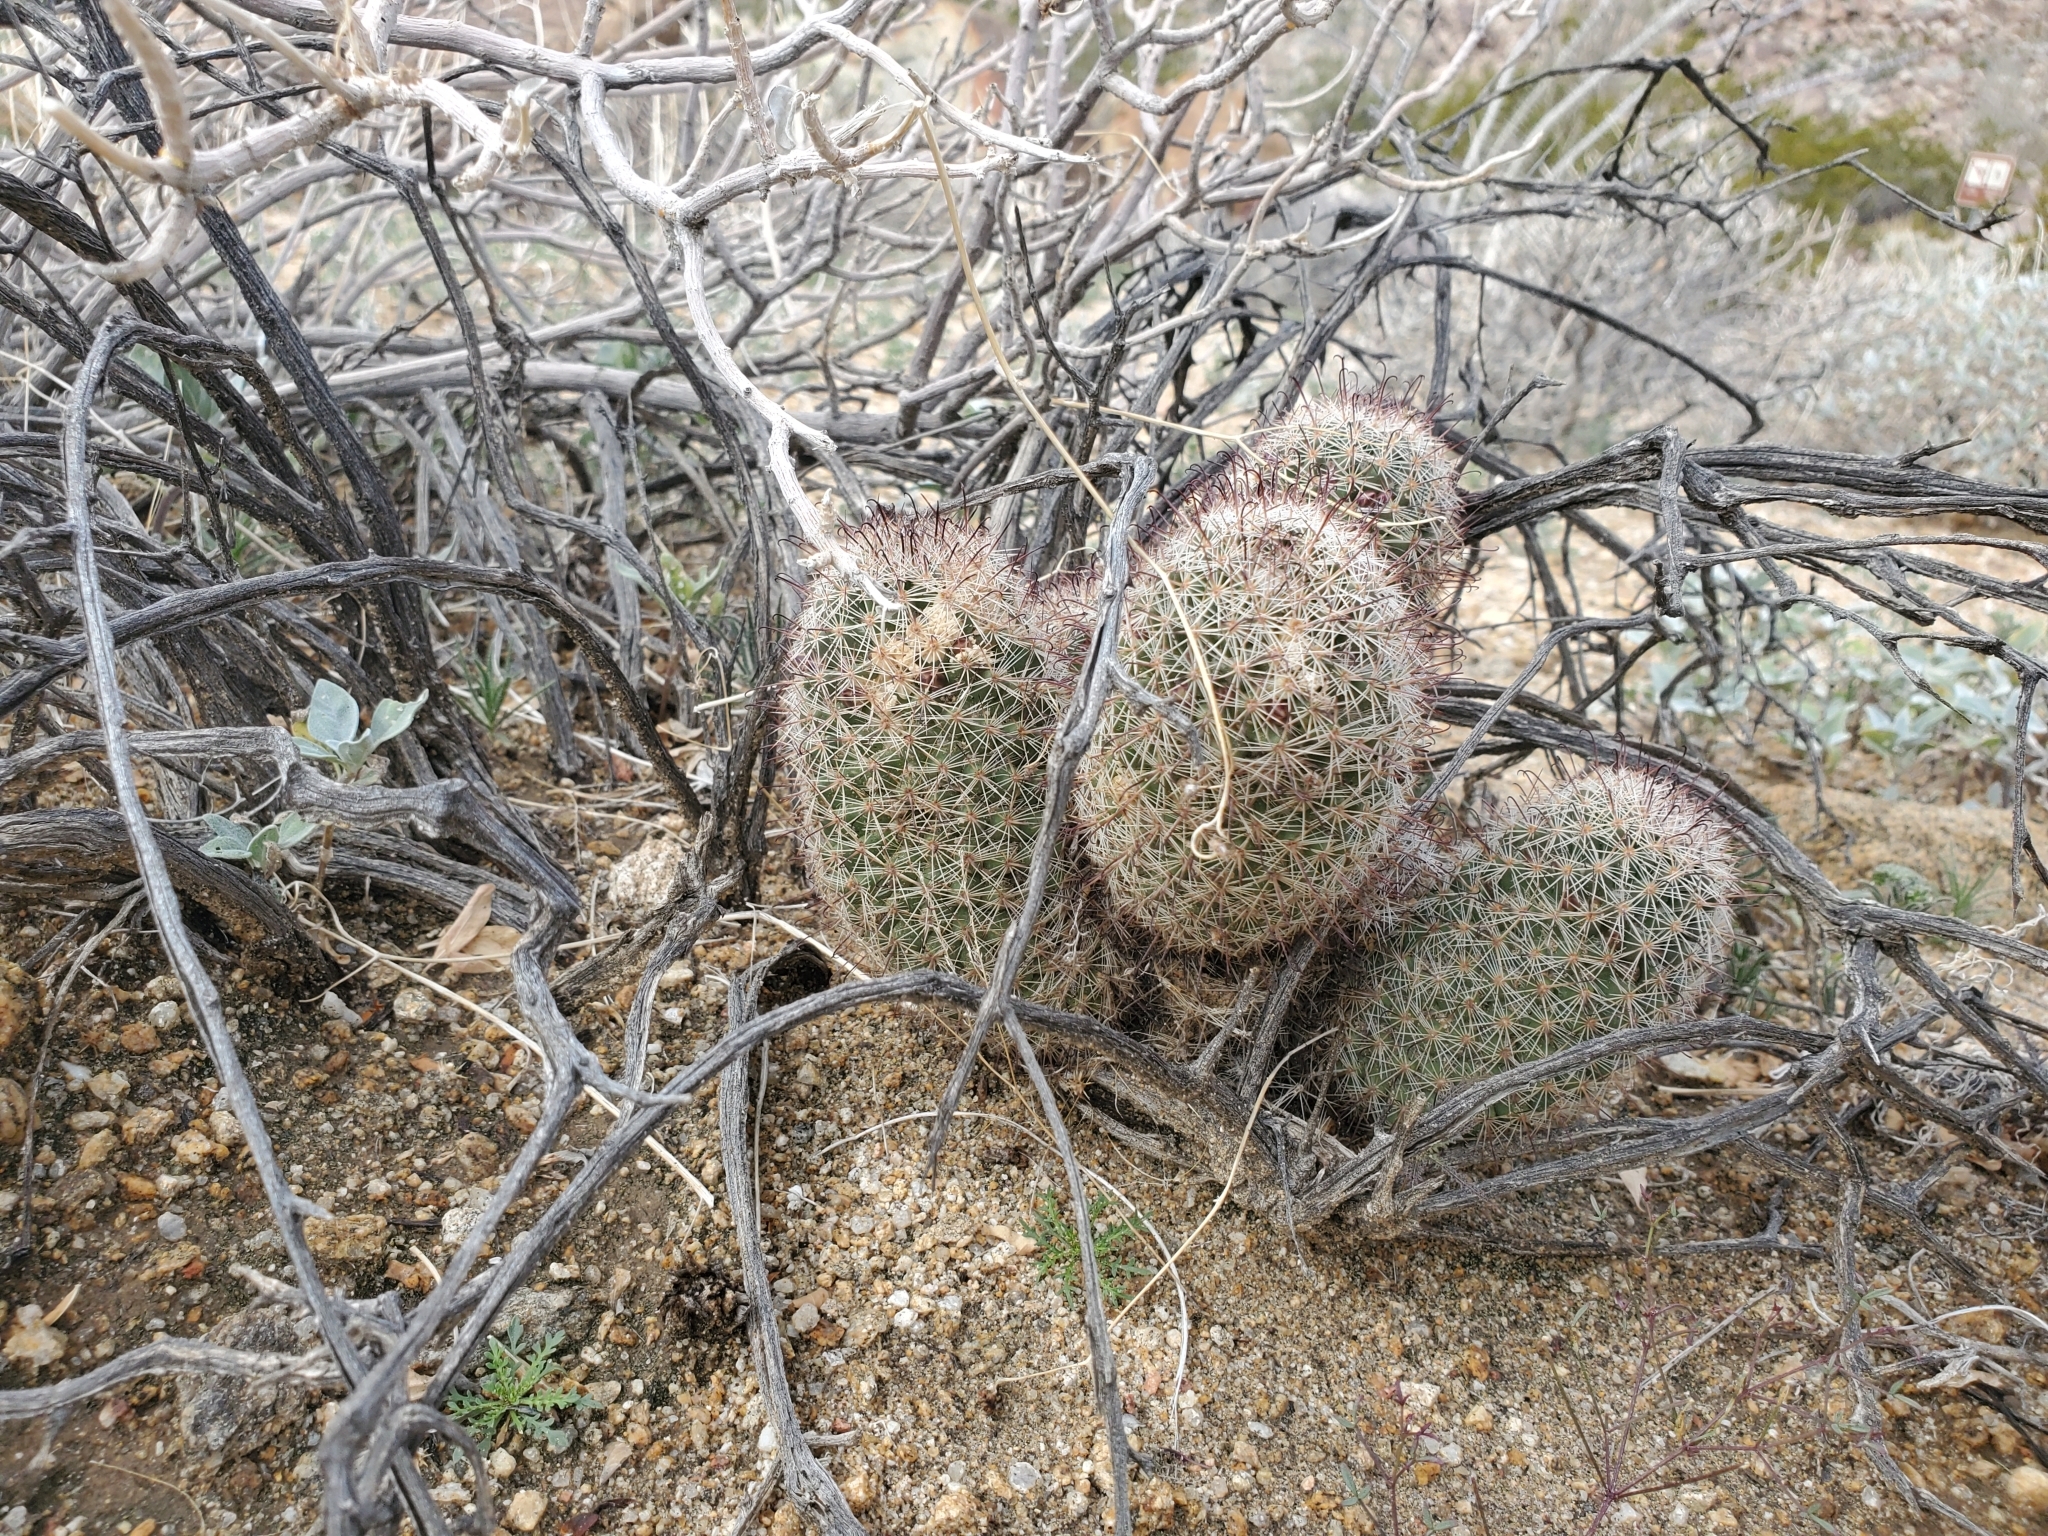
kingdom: Plantae
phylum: Tracheophyta
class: Magnoliopsida
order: Caryophyllales
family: Cactaceae
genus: Cochemiea
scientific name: Cochemiea dioica
